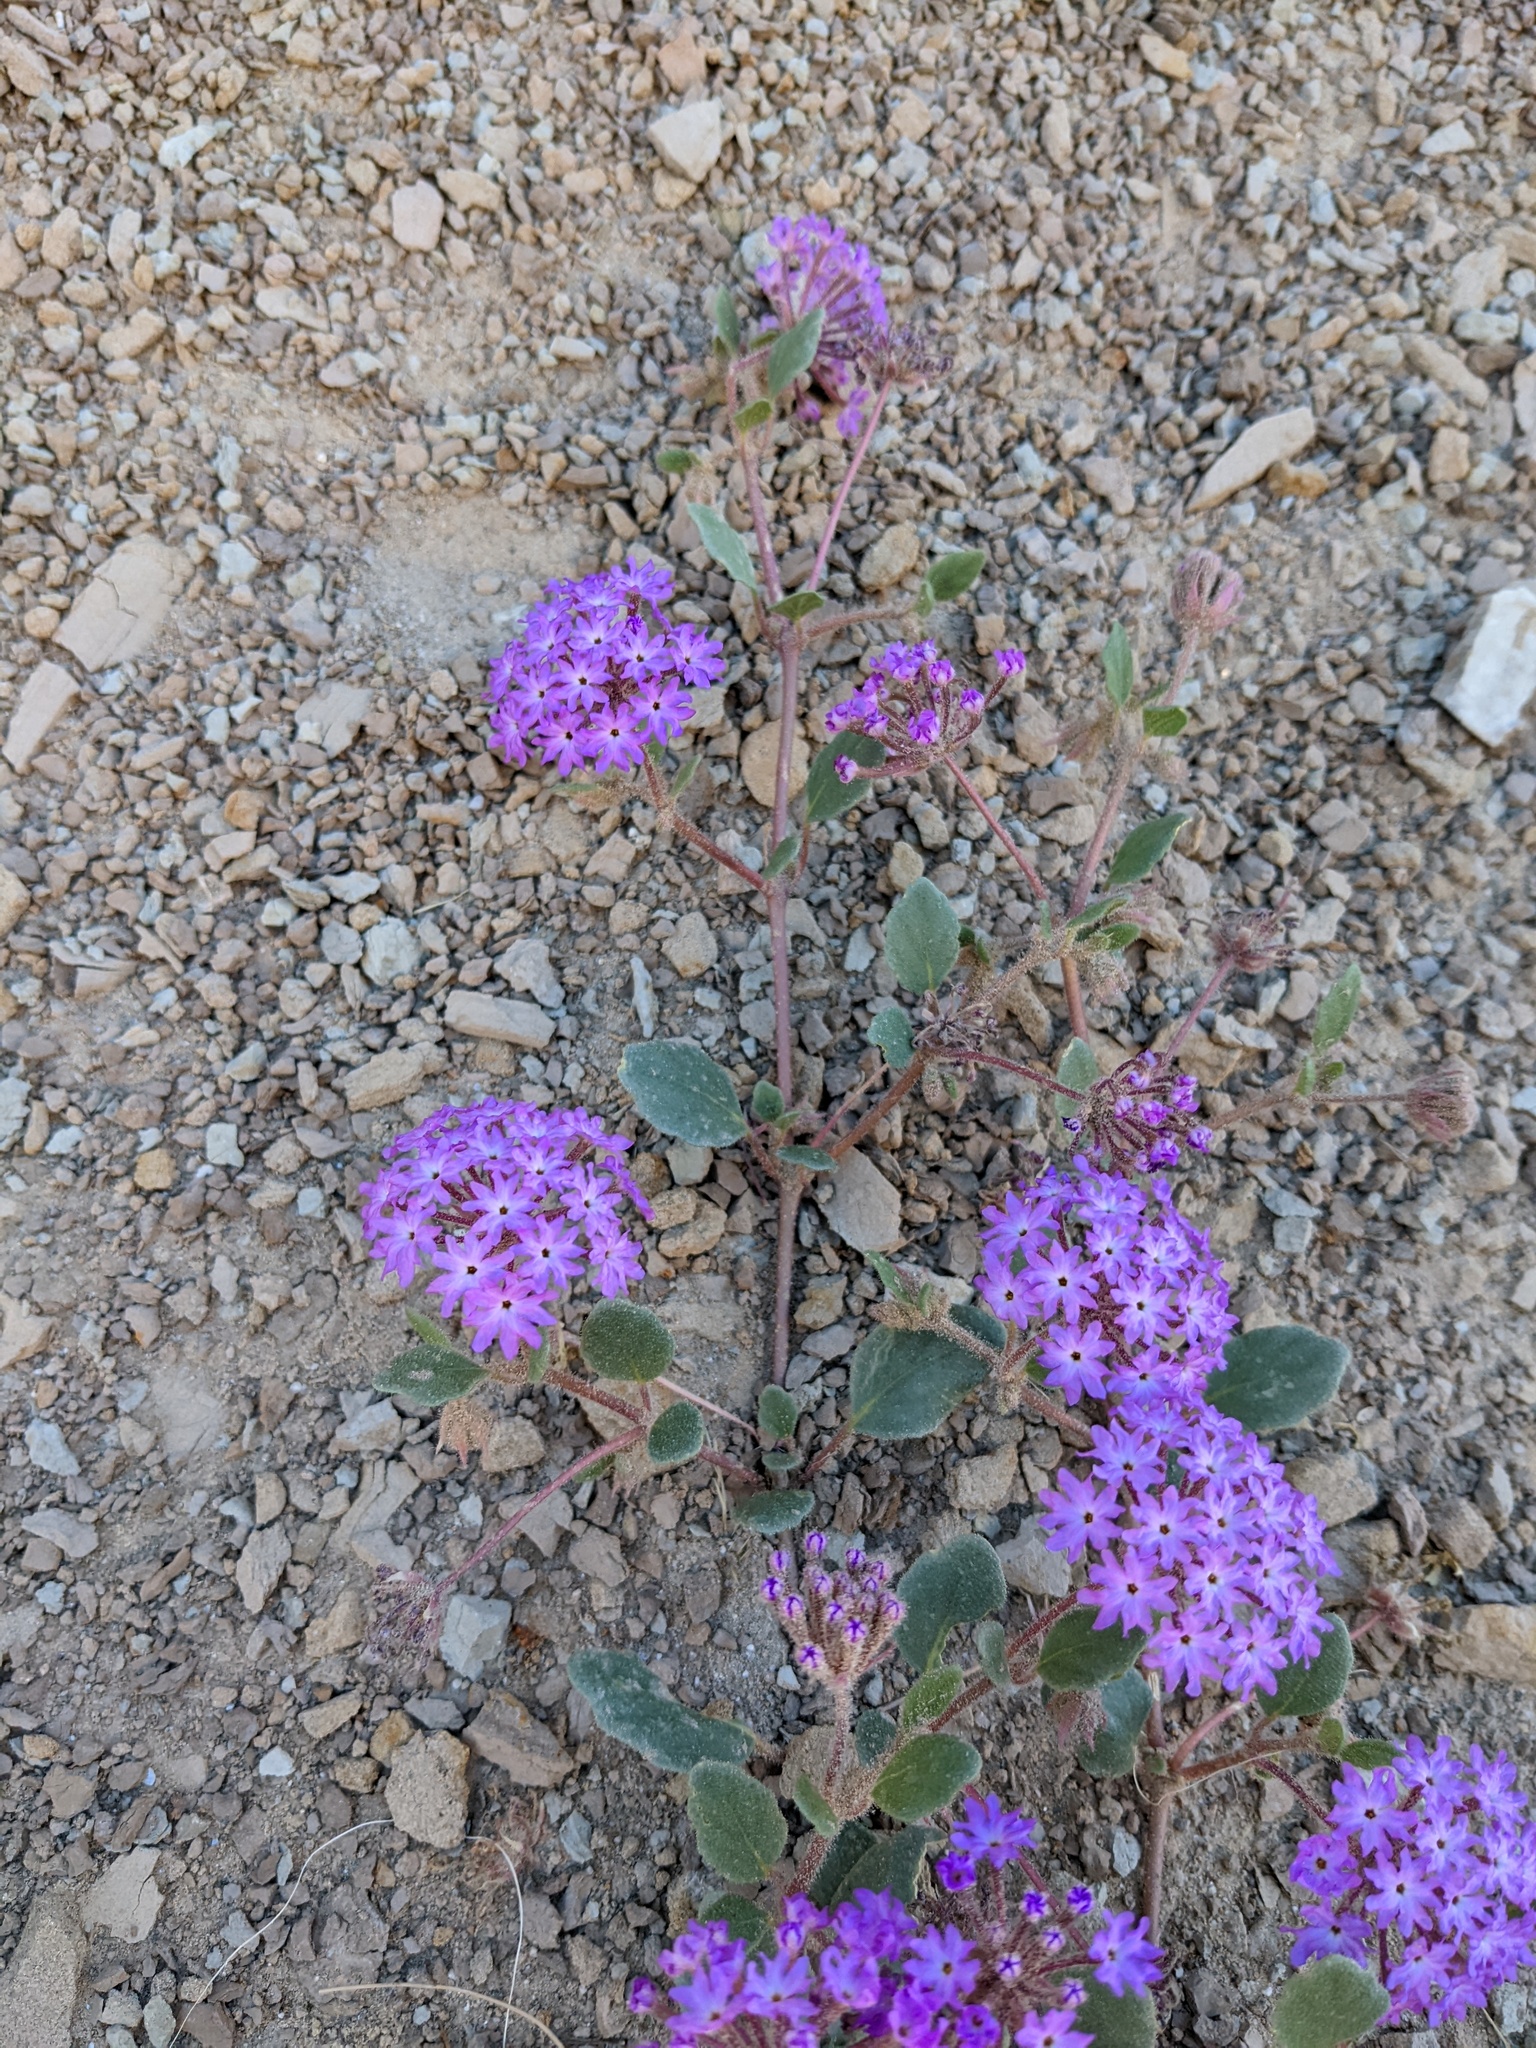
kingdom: Plantae
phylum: Tracheophyta
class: Magnoliopsida
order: Caryophyllales
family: Nyctaginaceae
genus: Abronia
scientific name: Abronia villosa
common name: Desert sand-verbena
